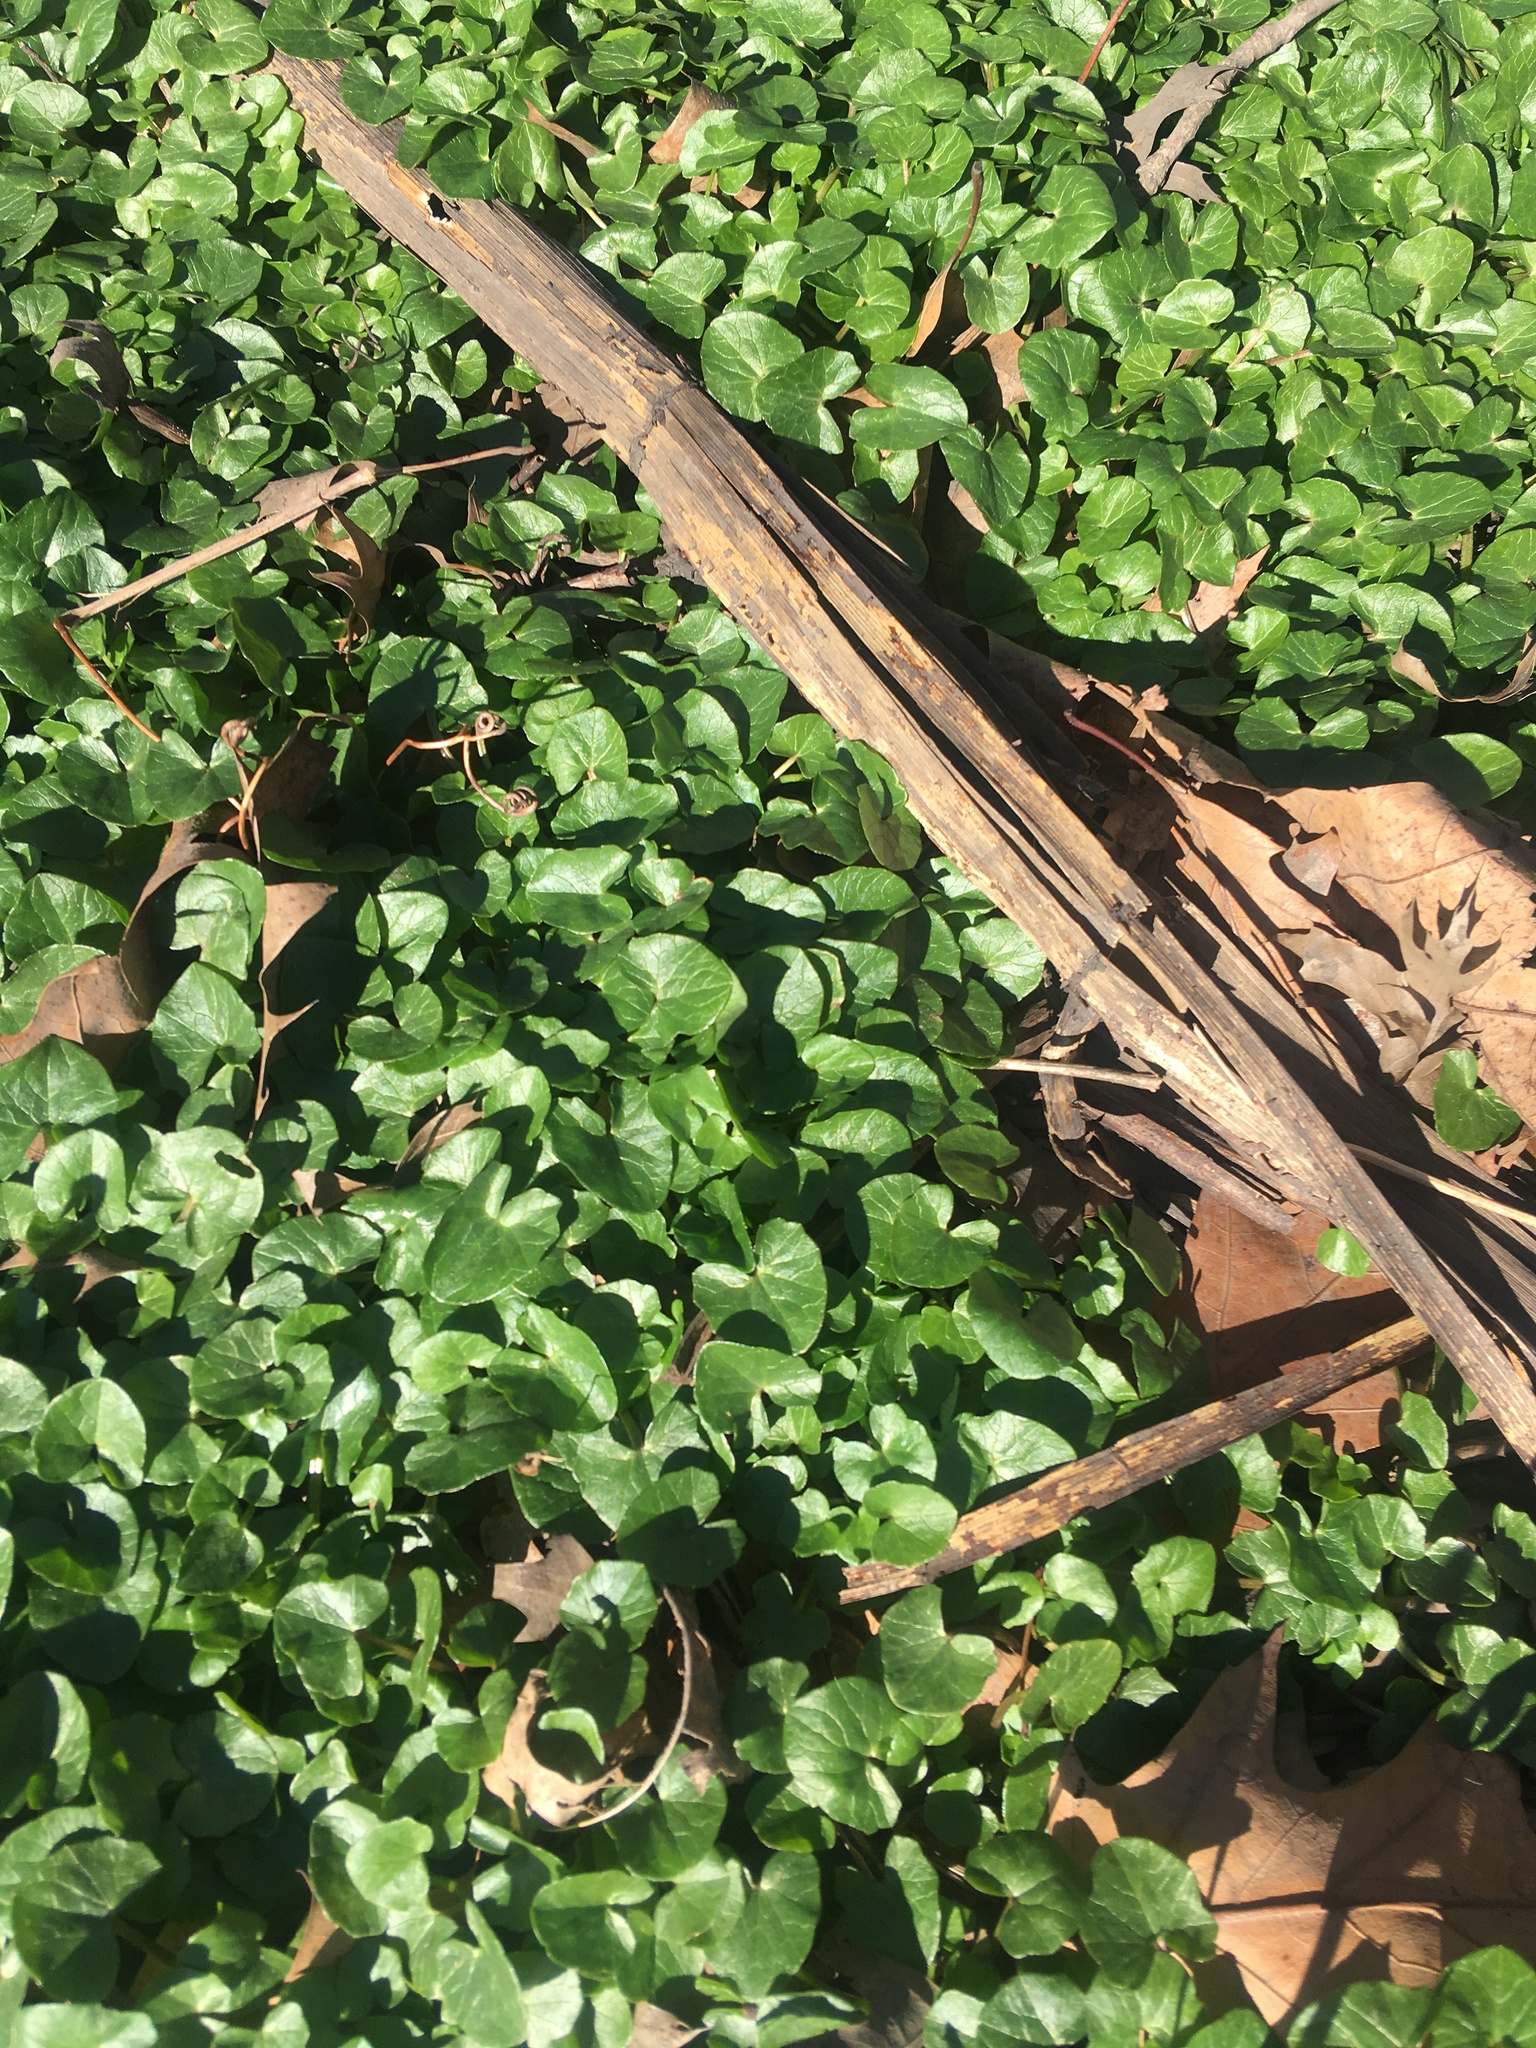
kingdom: Plantae
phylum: Tracheophyta
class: Magnoliopsida
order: Ranunculales
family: Ranunculaceae
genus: Ficaria
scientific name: Ficaria verna
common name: Lesser celandine
